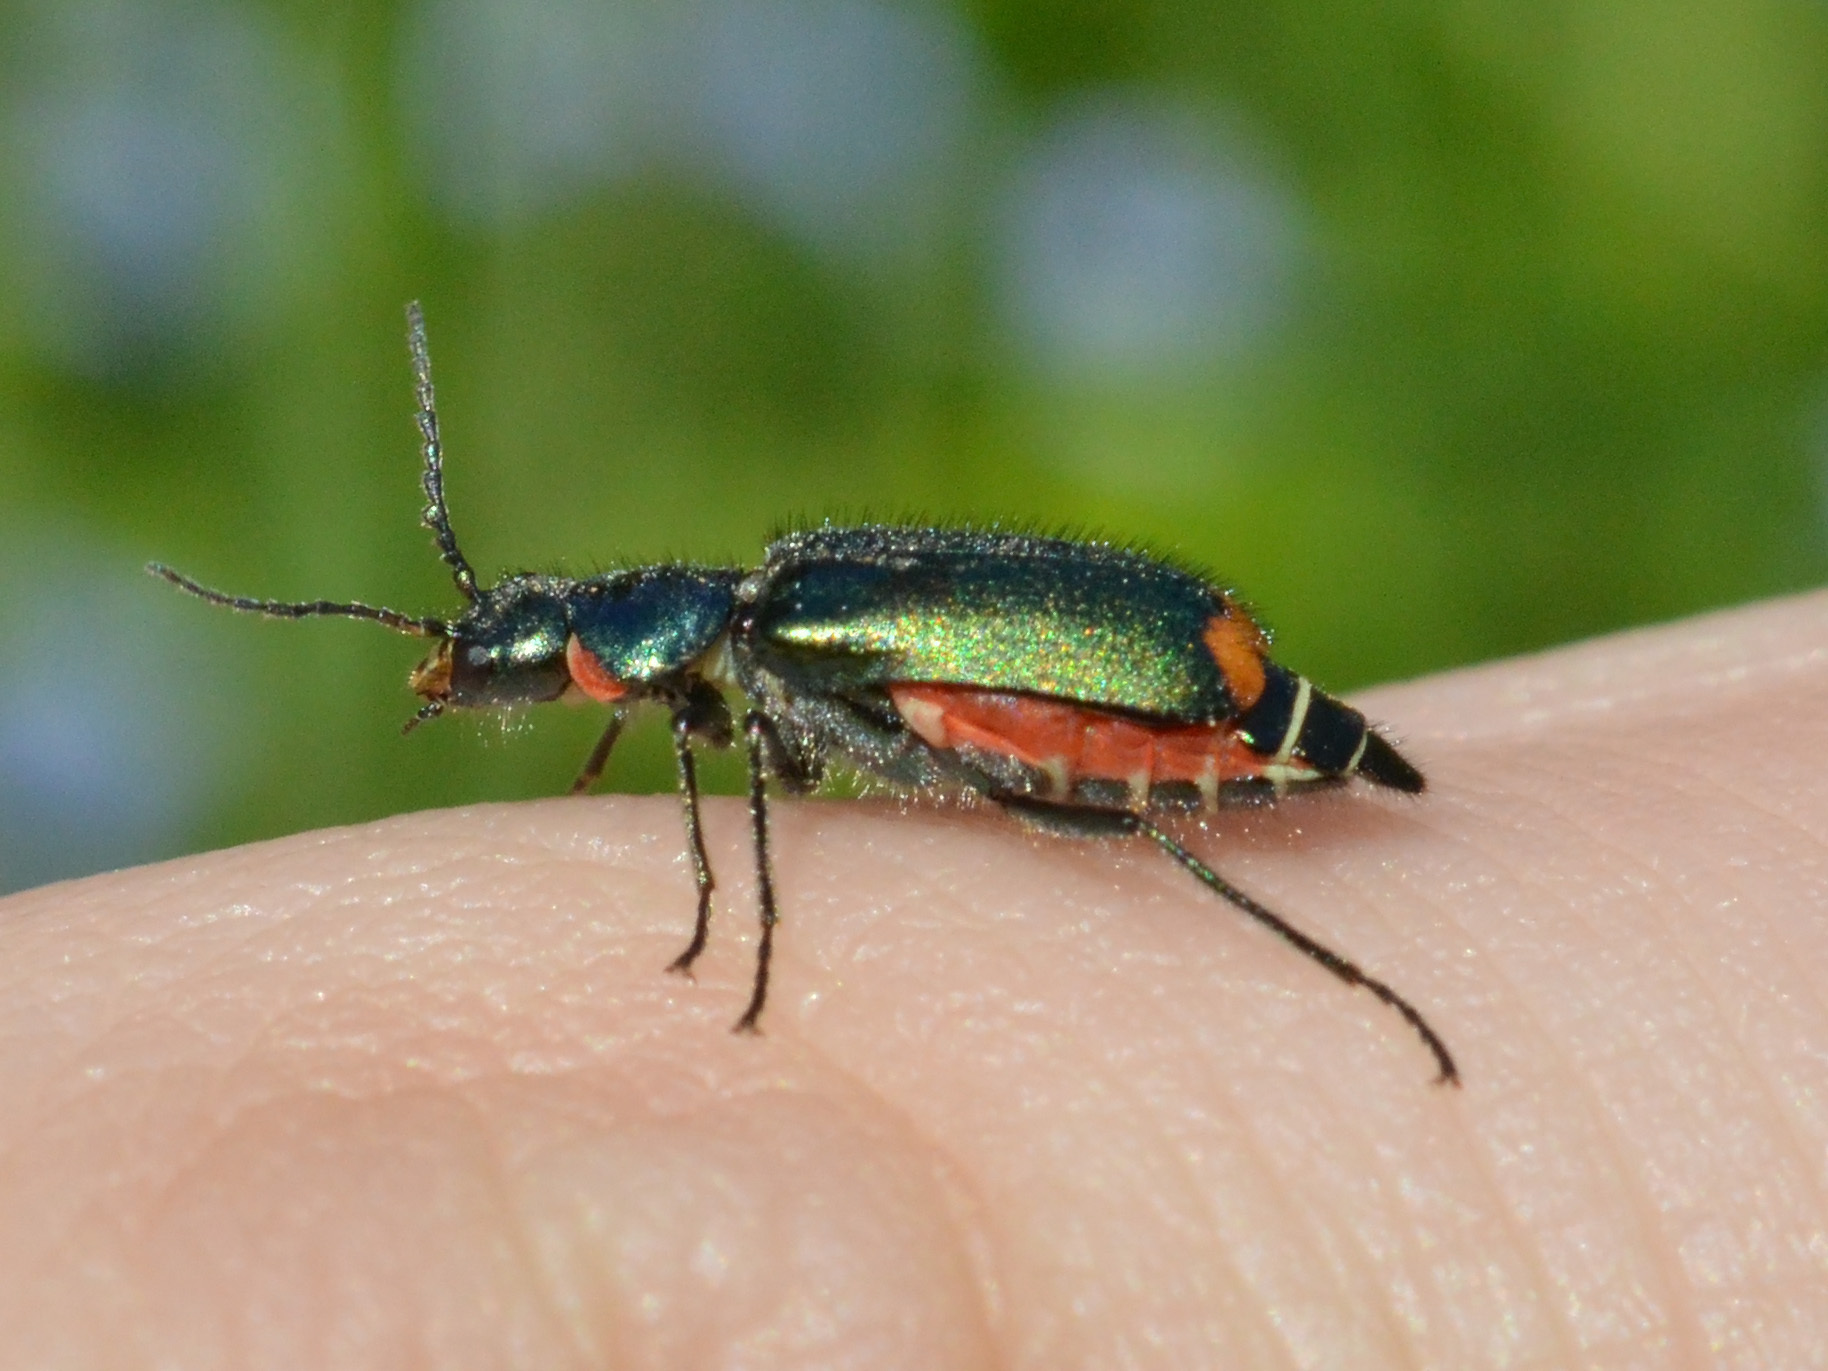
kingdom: Animalia
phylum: Arthropoda
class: Insecta
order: Coleoptera
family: Melyridae
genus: Malachius
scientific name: Malachius bipustulatus
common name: Malachite beetle
